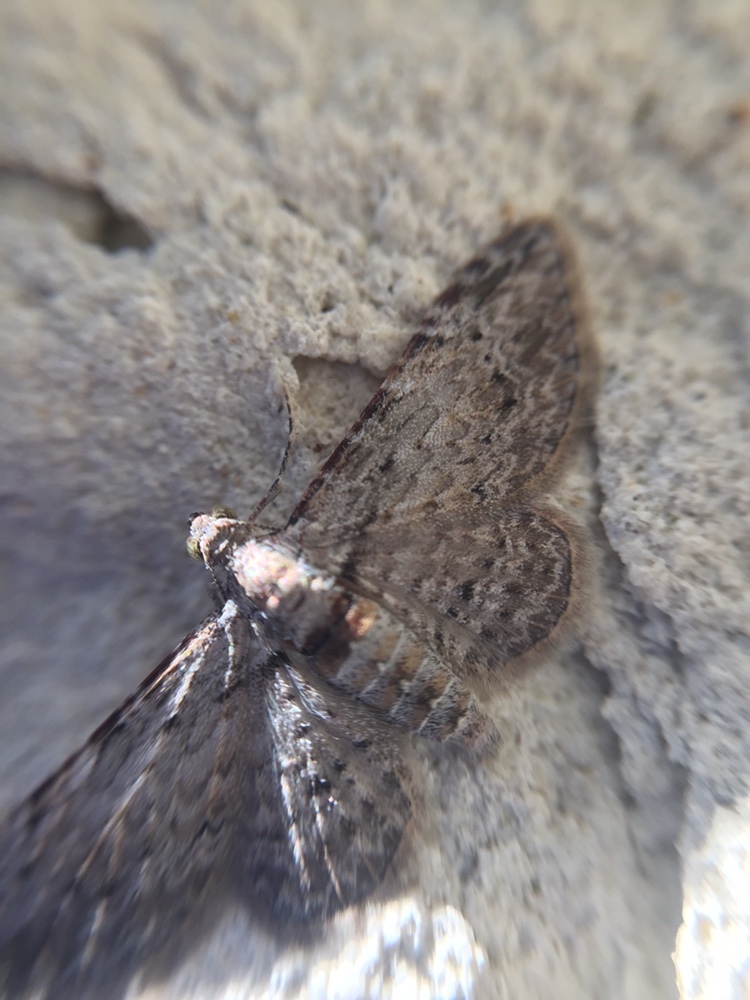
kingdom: Animalia
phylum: Arthropoda
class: Insecta
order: Lepidoptera
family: Geometridae
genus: Chloroclystis
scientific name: Chloroclystis insigillata
